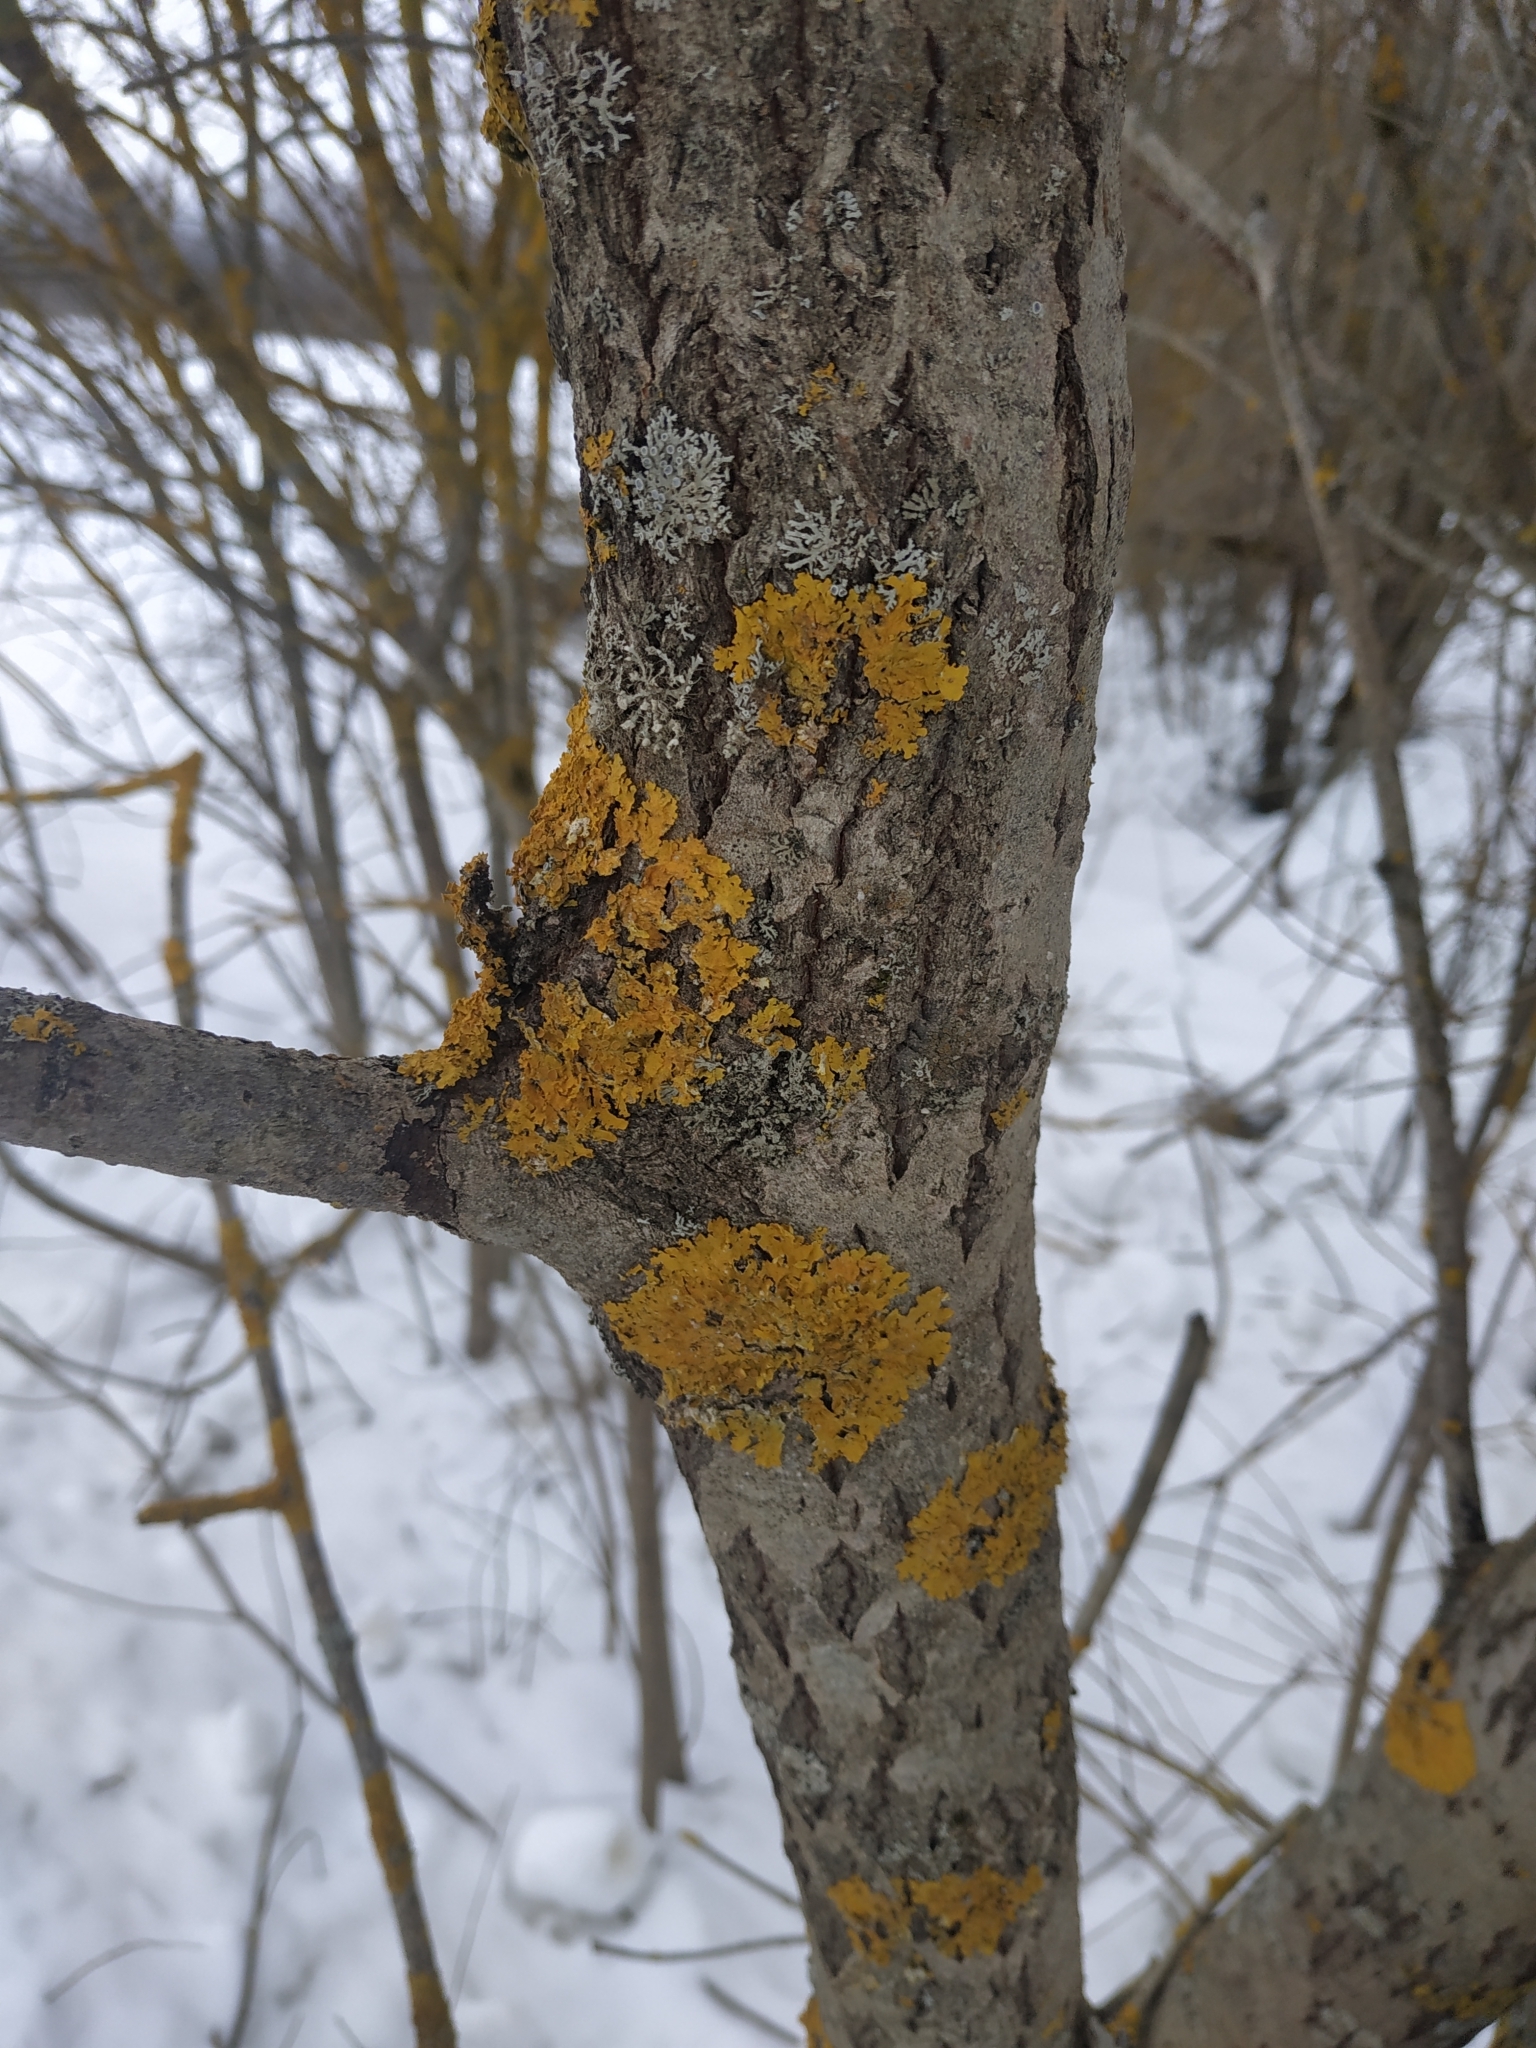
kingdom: Fungi
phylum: Ascomycota
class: Lecanoromycetes
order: Teloschistales
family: Teloschistaceae
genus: Xanthoria
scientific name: Xanthoria parietina
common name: Common orange lichen
